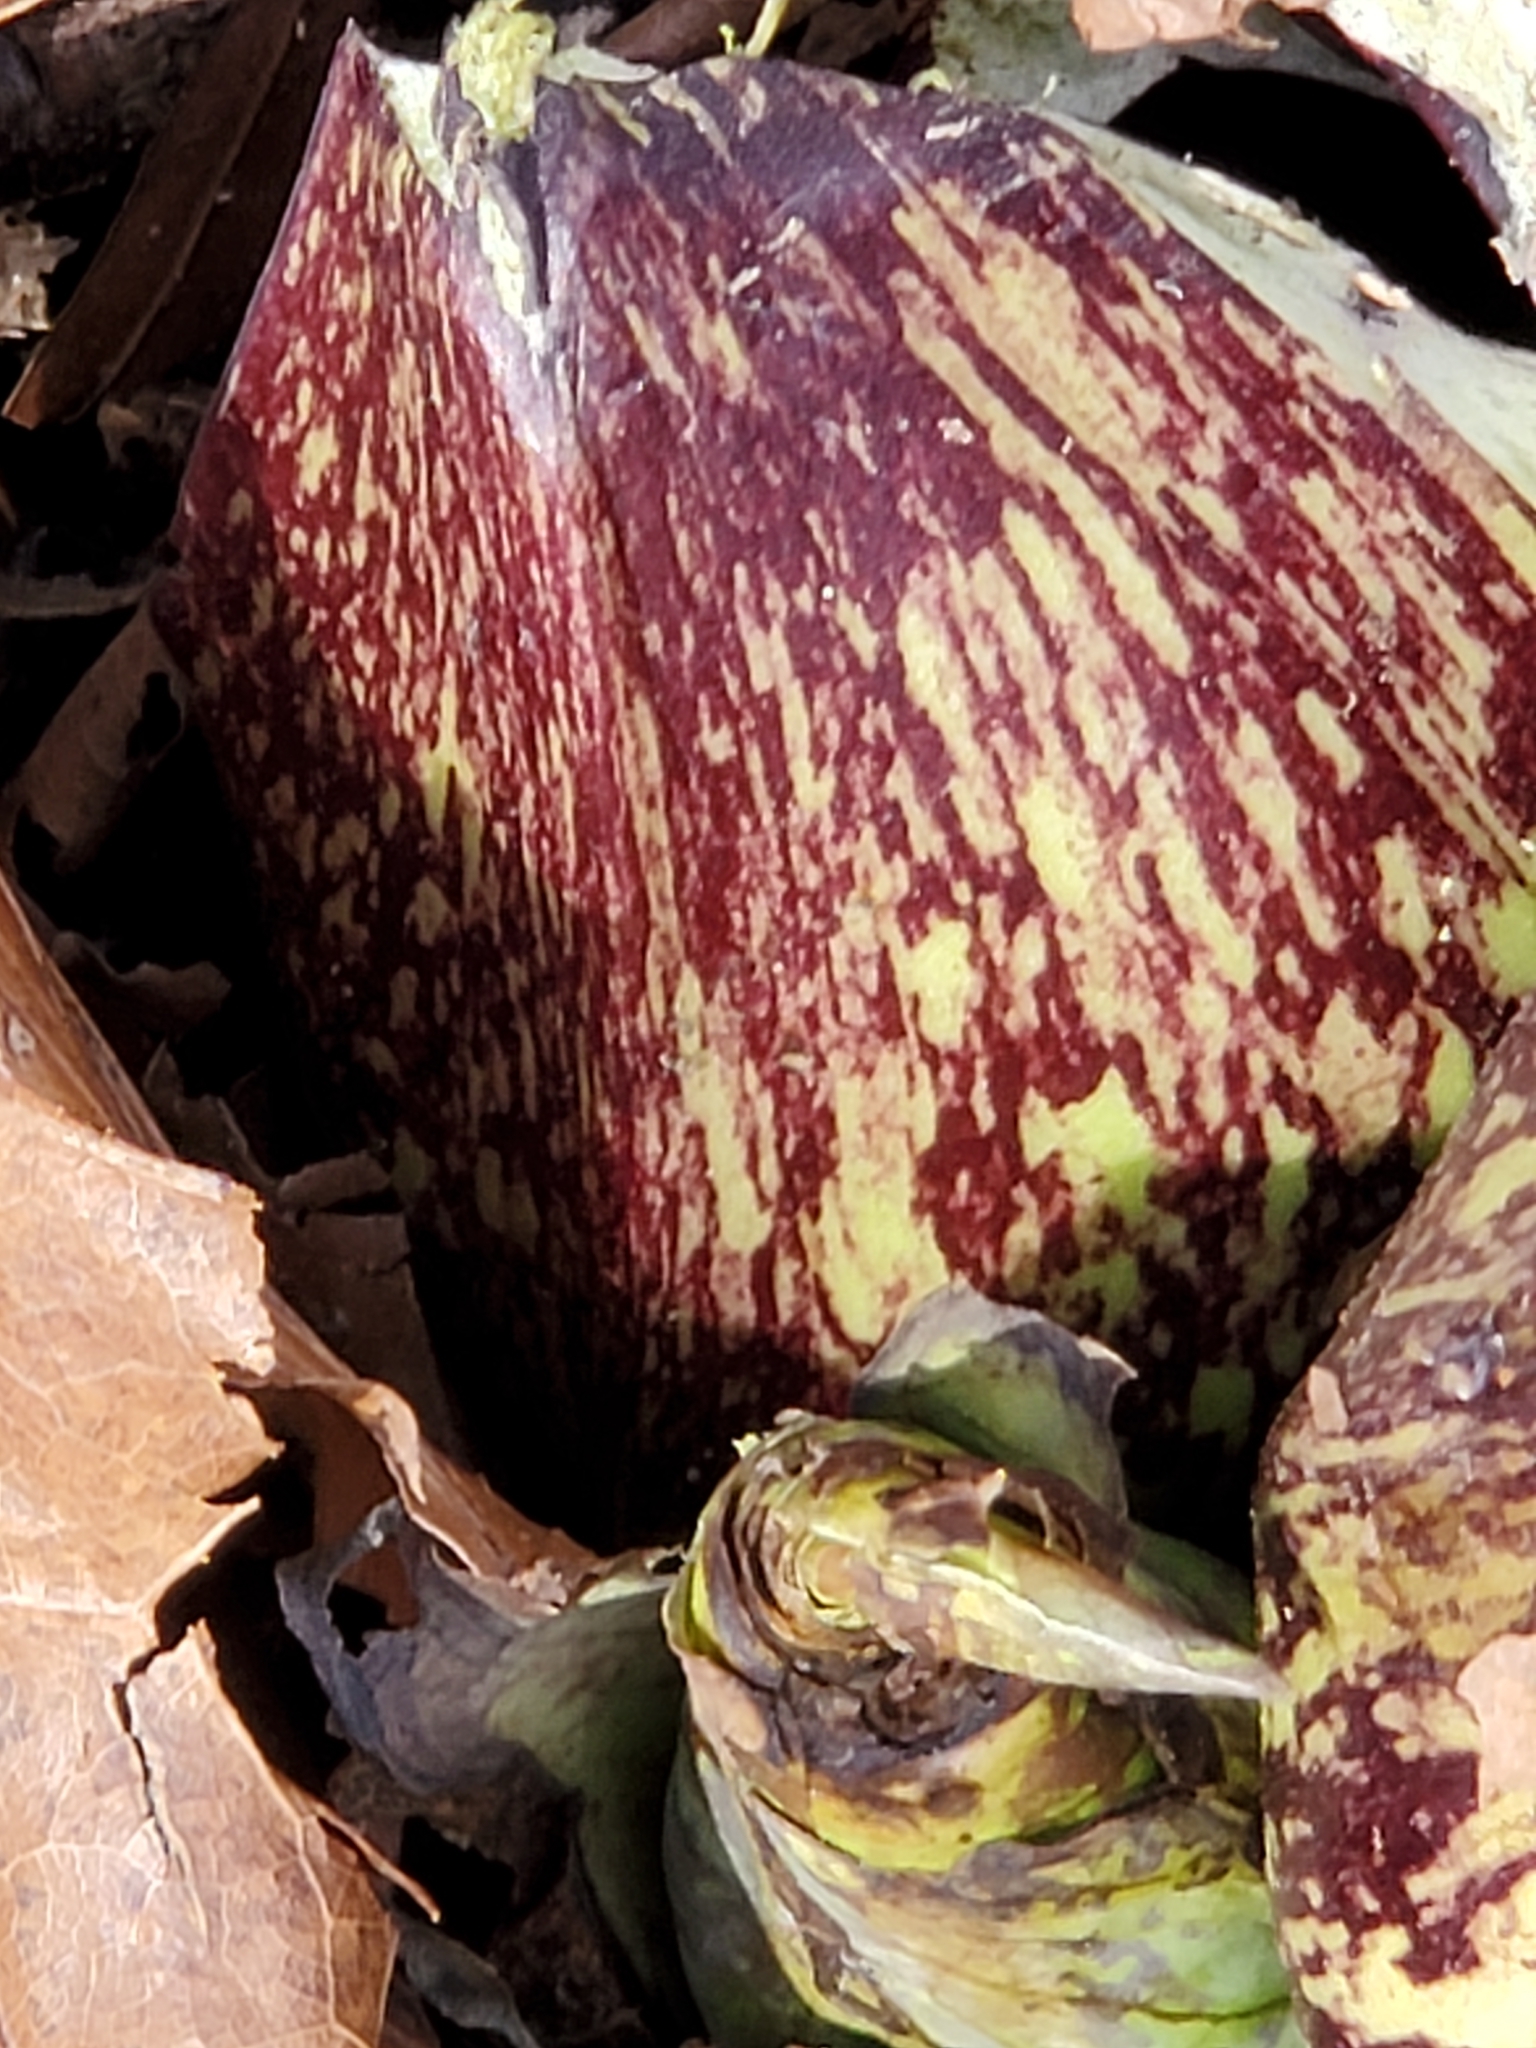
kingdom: Plantae
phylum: Tracheophyta
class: Liliopsida
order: Alismatales
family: Araceae
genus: Symplocarpus
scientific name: Symplocarpus foetidus
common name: Eastern skunk cabbage
